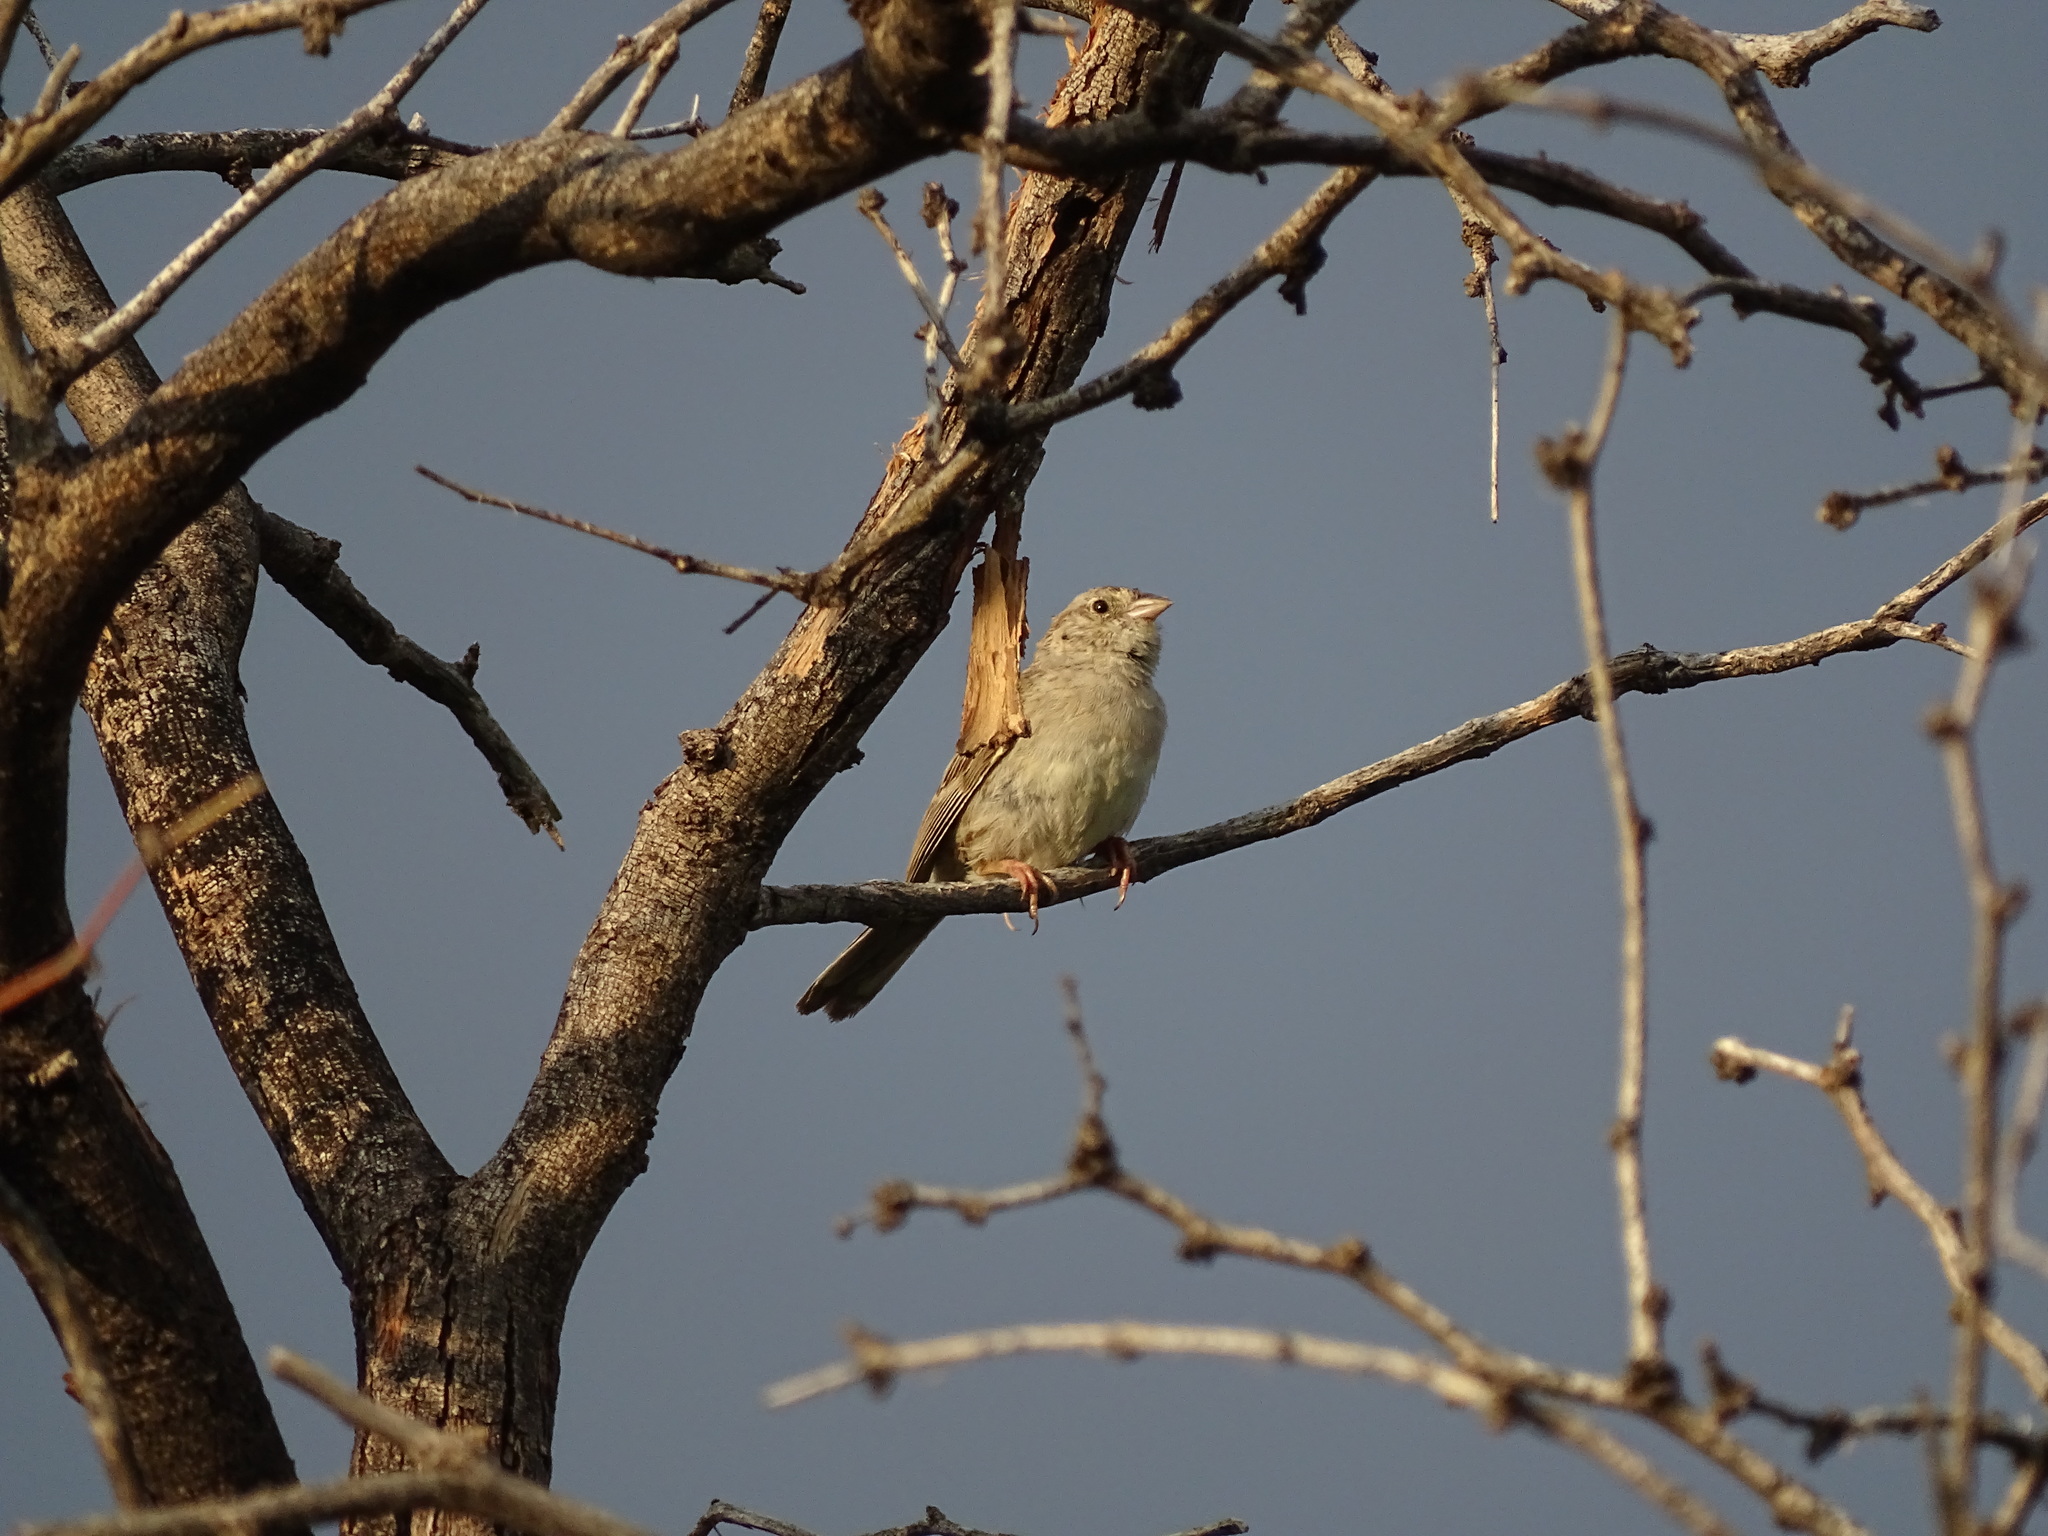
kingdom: Animalia
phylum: Chordata
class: Aves
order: Passeriformes
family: Passerellidae
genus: Peucaea
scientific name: Peucaea cassinii
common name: Cassin's sparrow
